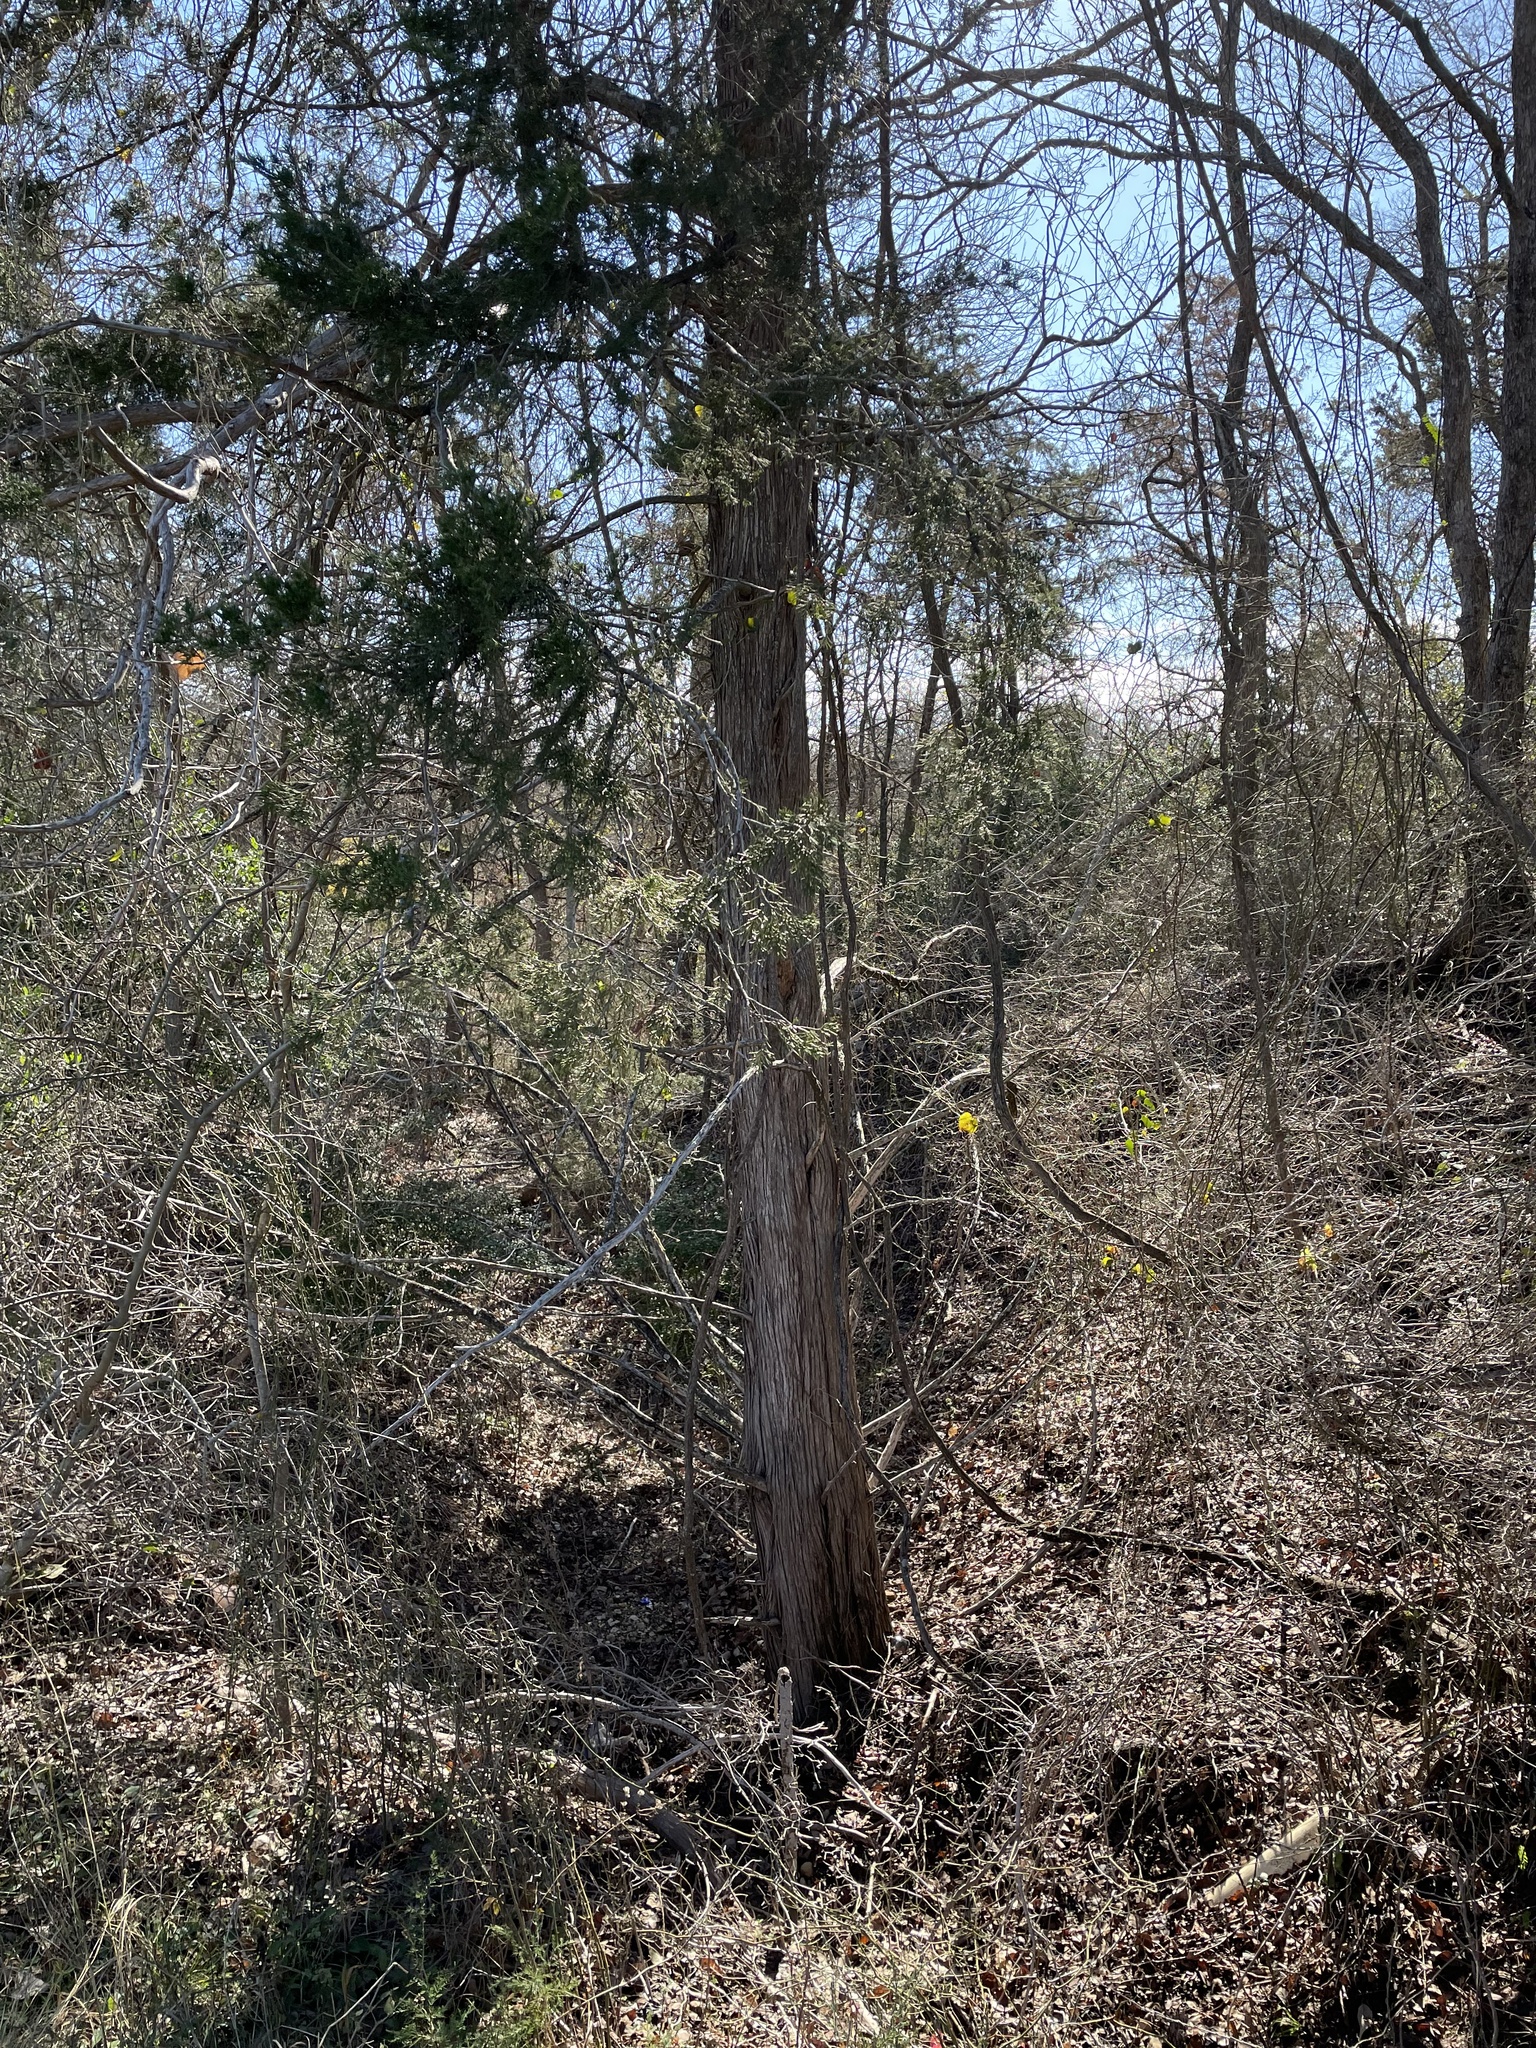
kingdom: Plantae
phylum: Tracheophyta
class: Pinopsida
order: Pinales
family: Cupressaceae
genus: Juniperus
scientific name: Juniperus virginiana
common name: Red juniper
